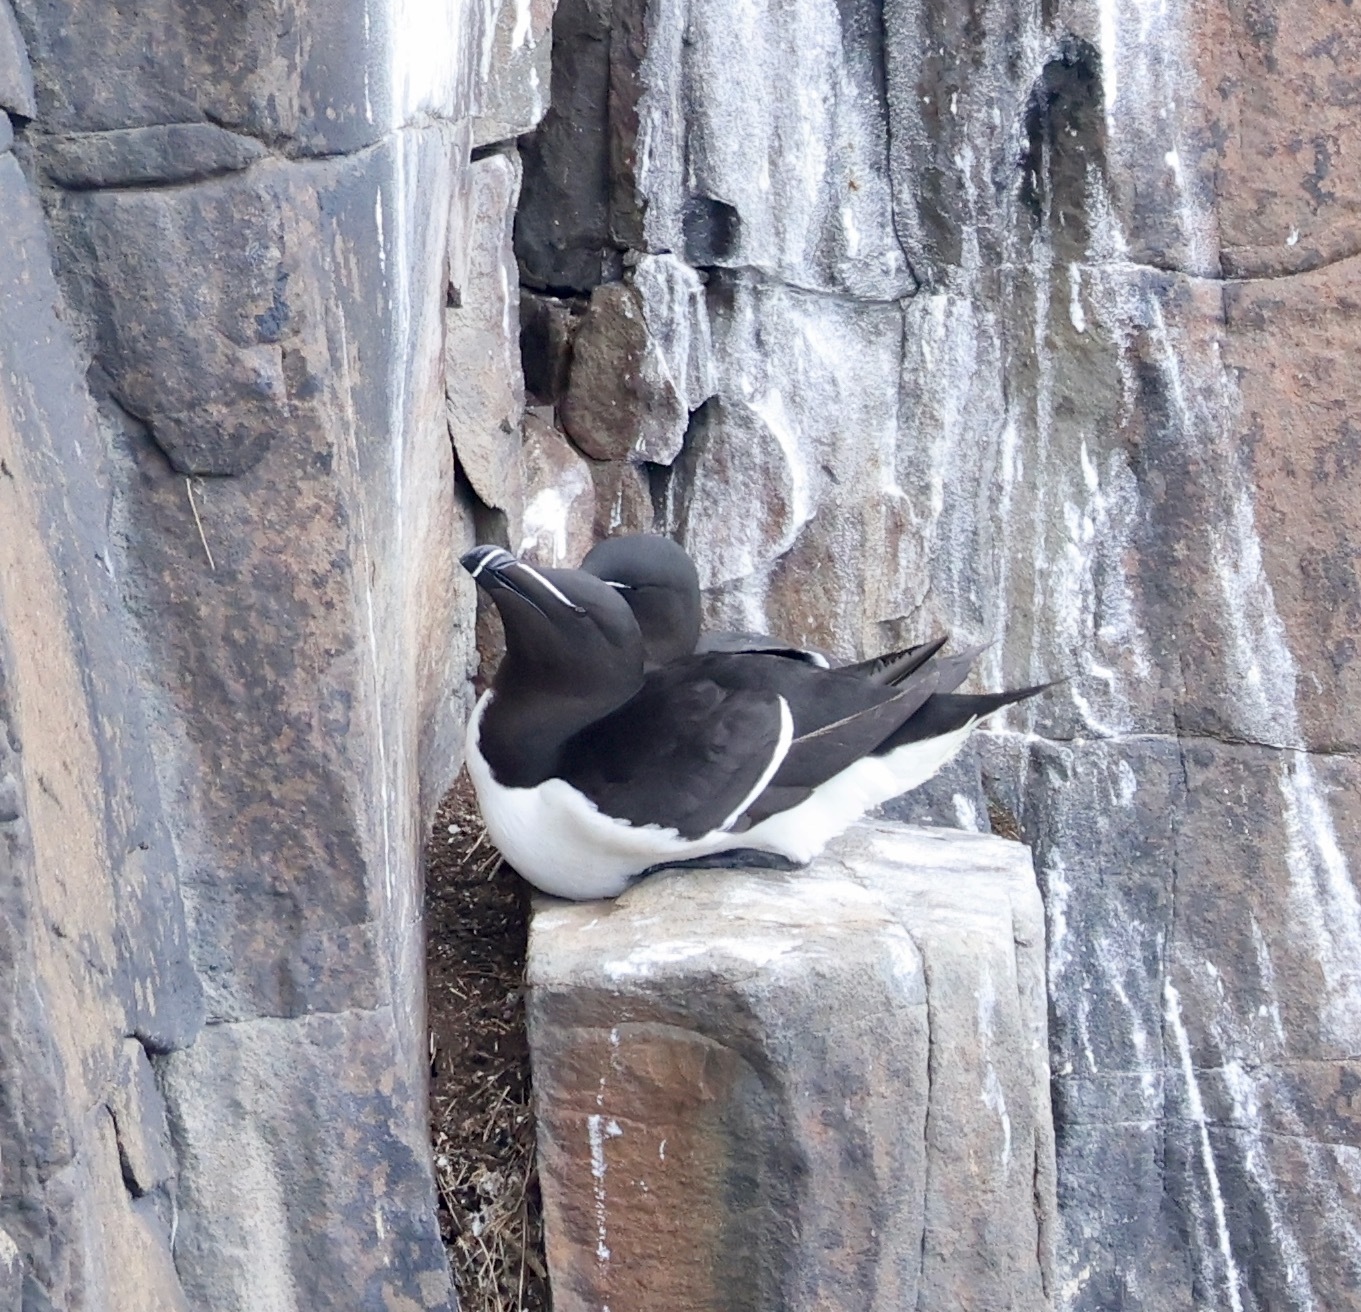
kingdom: Animalia
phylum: Chordata
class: Aves
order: Charadriiformes
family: Alcidae
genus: Alca
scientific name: Alca torda
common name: Razorbill
